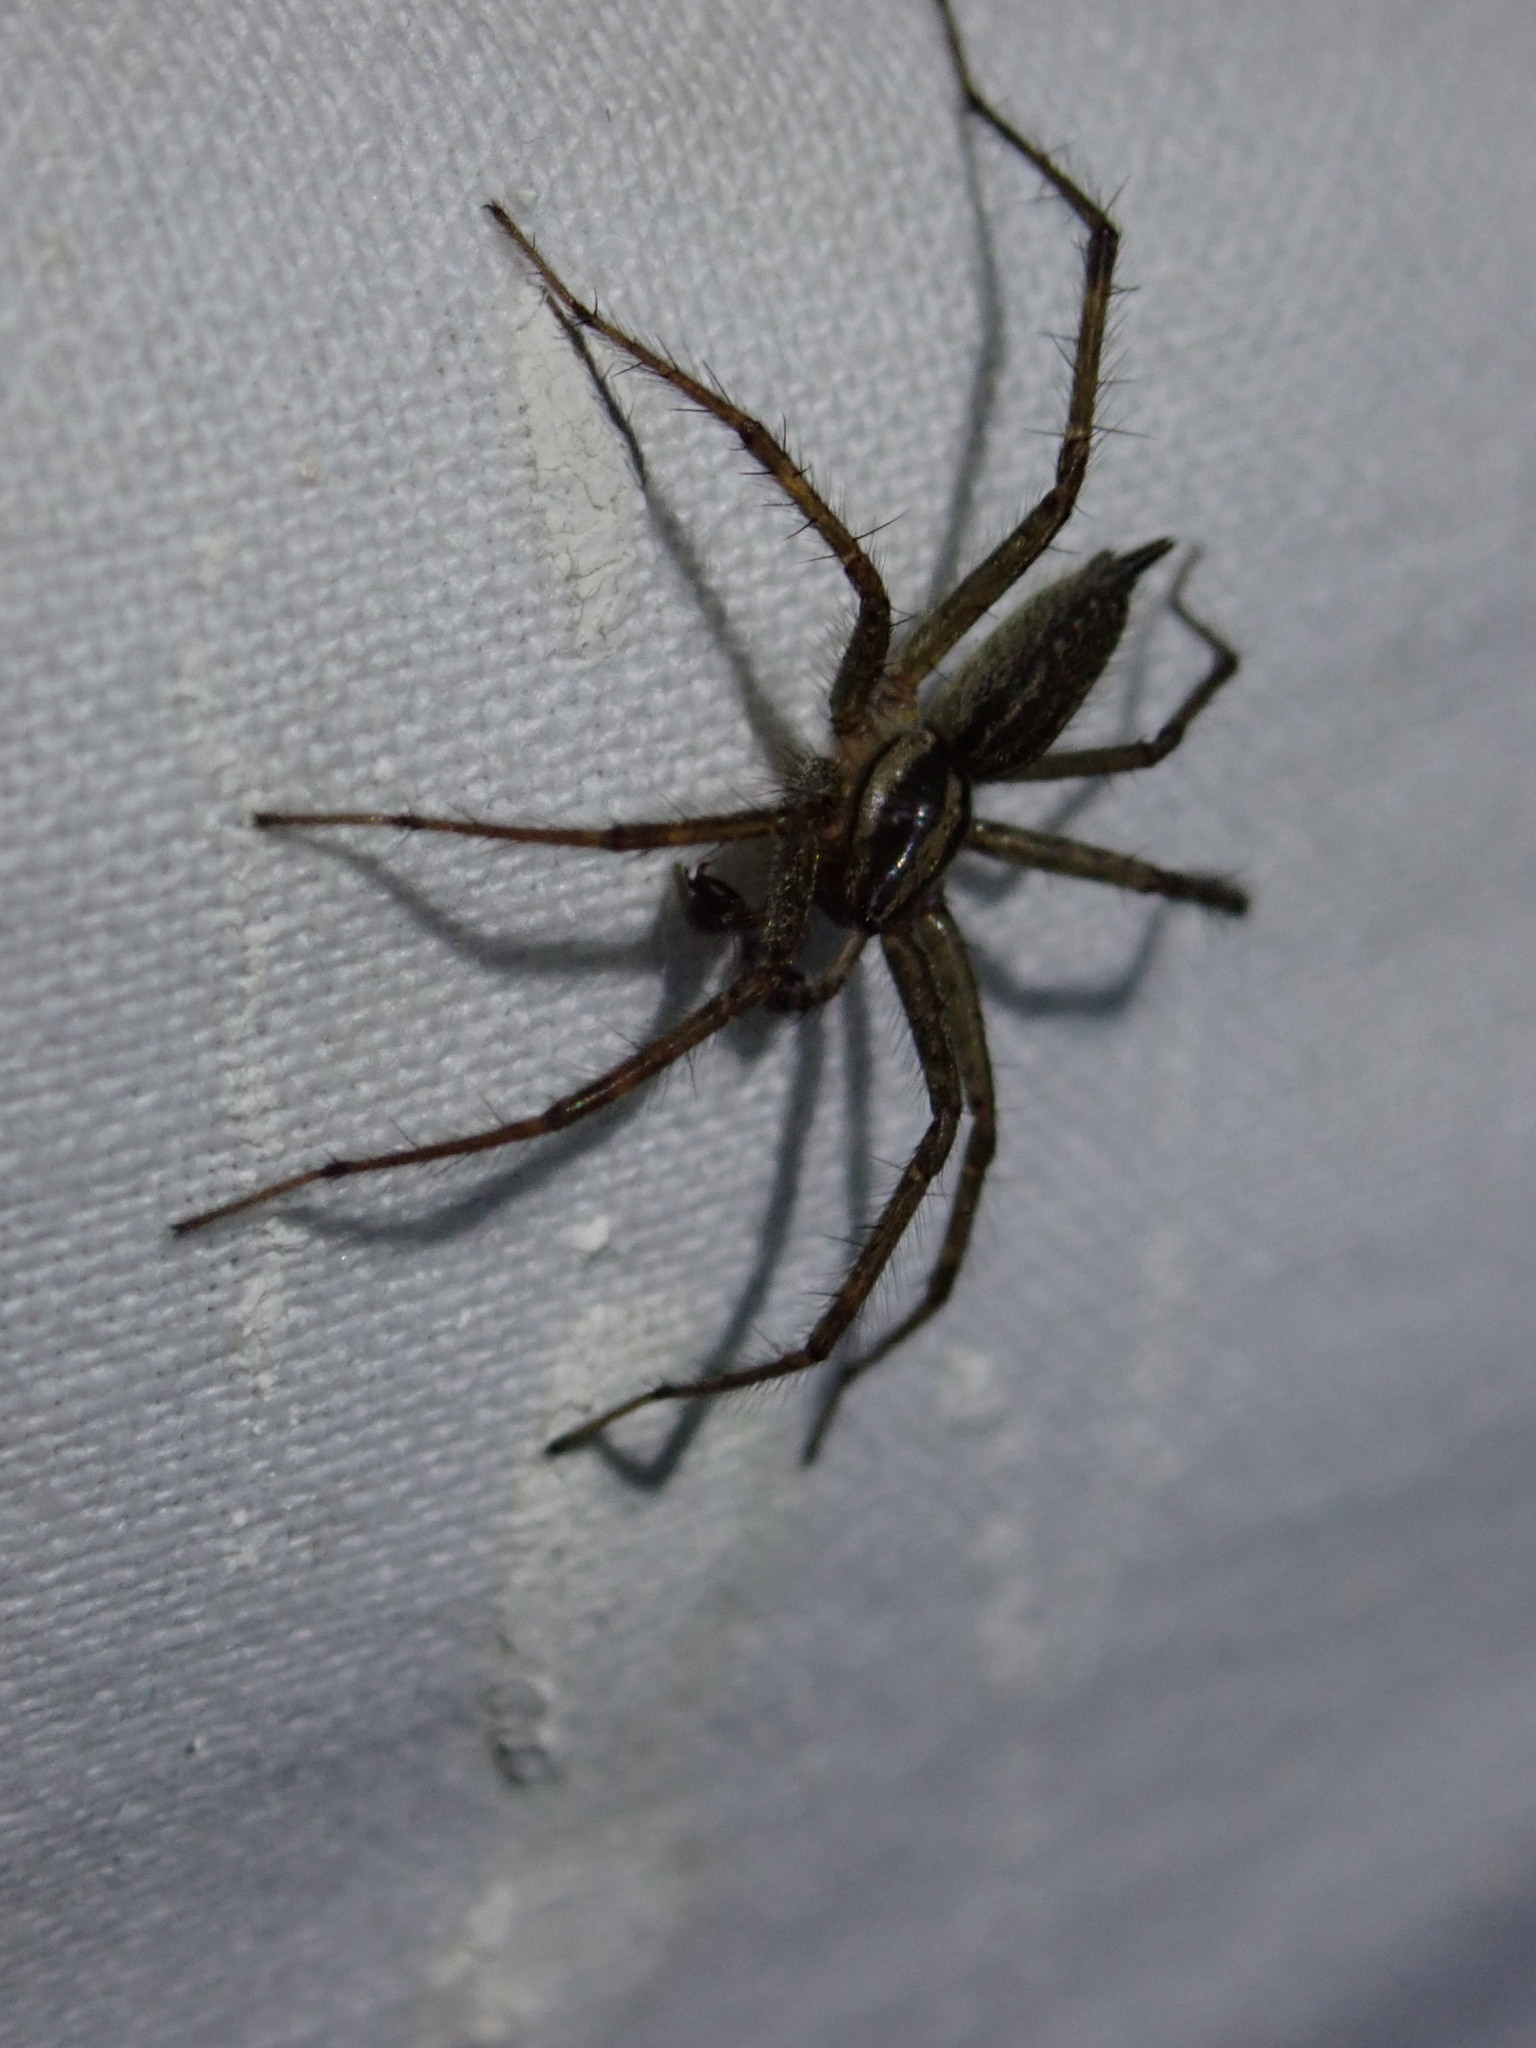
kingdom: Animalia
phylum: Arthropoda
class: Arachnida
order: Araneae
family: Agelenidae
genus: Agelenopsis
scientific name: Agelenopsis potteri
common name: Potter's grass spider
